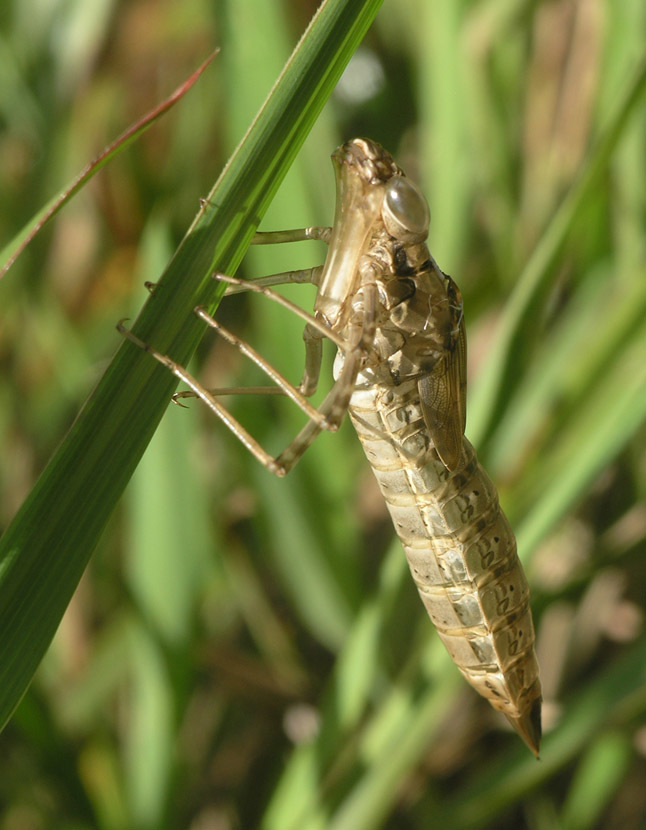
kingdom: Animalia
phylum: Arthropoda
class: Insecta
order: Odonata
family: Aeshnidae
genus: Anax
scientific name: Anax aurantiacus
